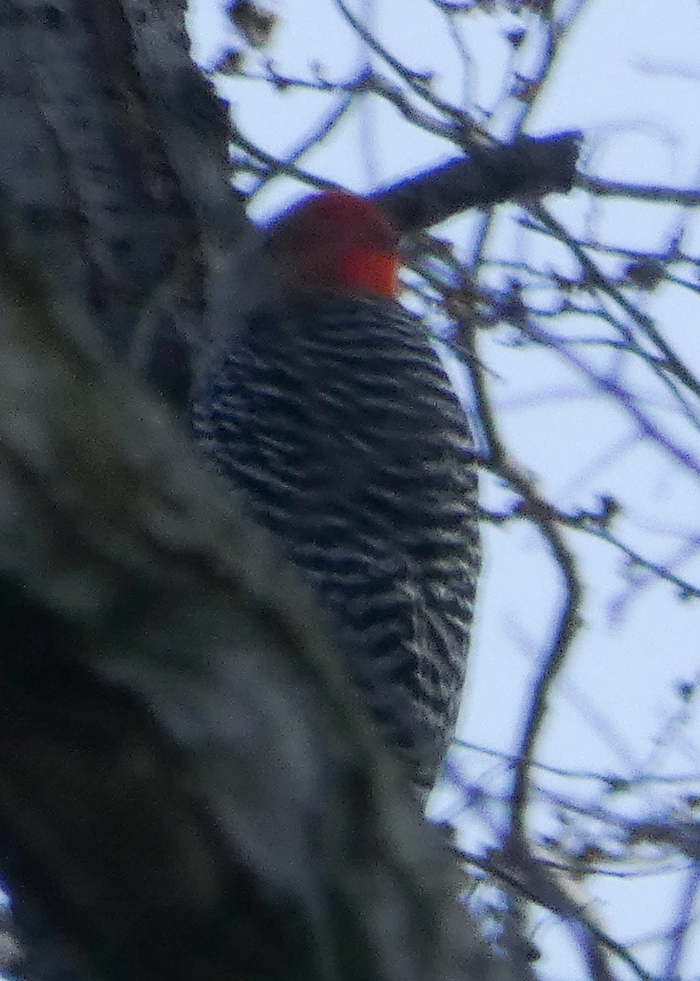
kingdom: Animalia
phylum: Chordata
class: Aves
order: Piciformes
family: Picidae
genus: Melanerpes
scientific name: Melanerpes carolinus
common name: Red-bellied woodpecker
